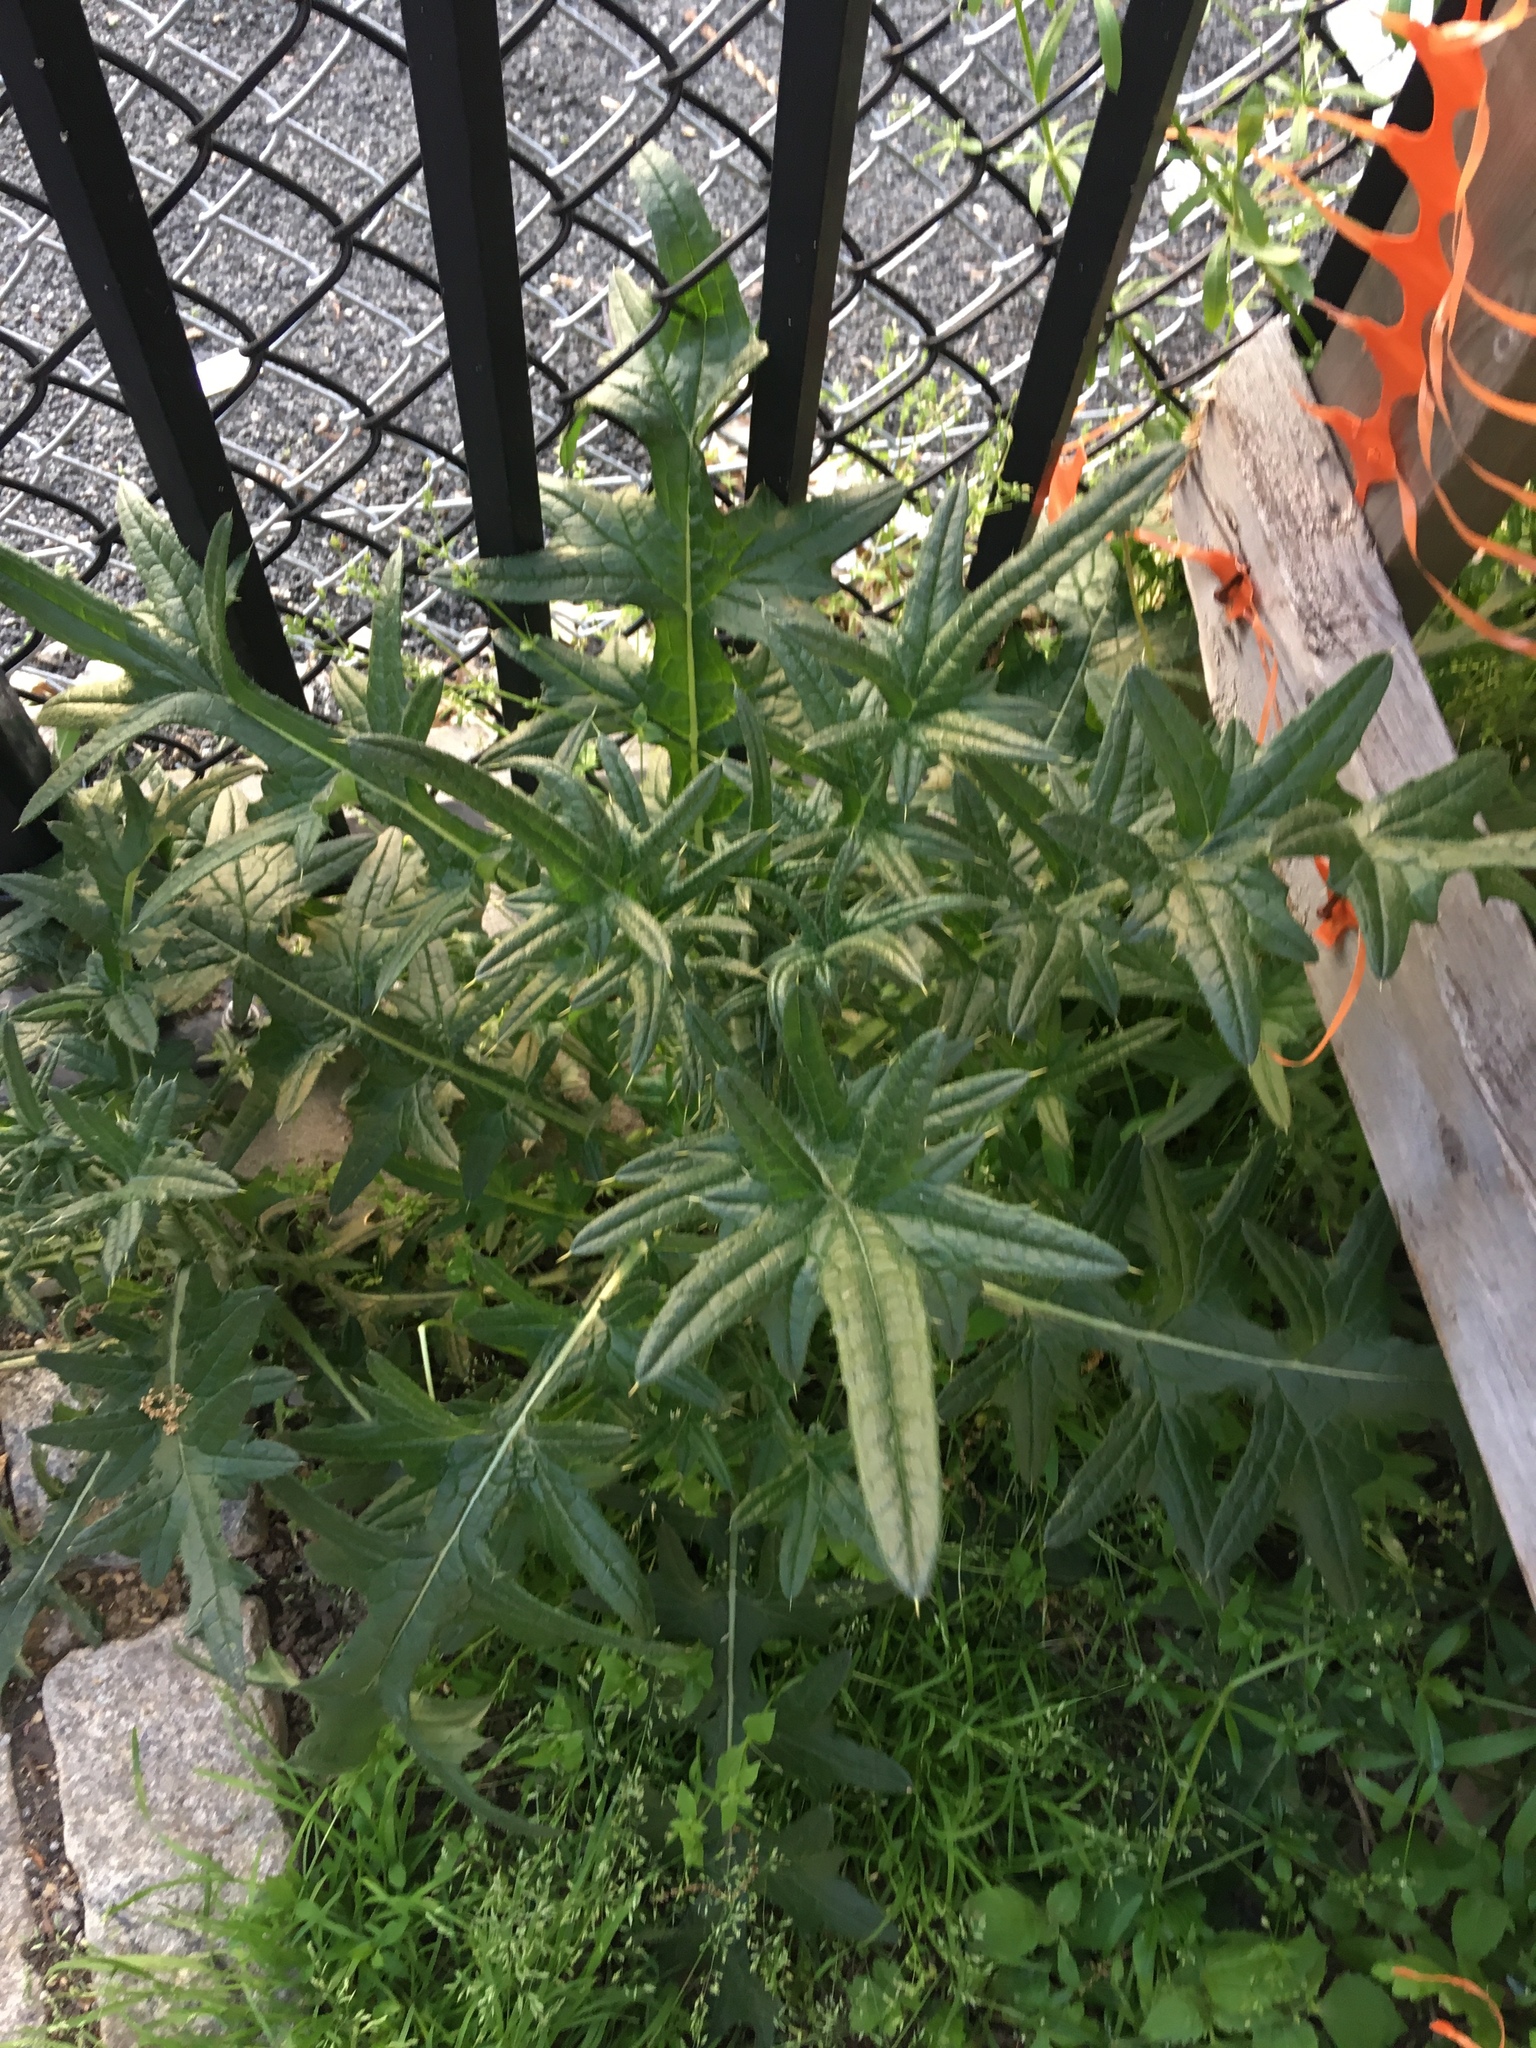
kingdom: Plantae
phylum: Tracheophyta
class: Magnoliopsida
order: Asterales
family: Asteraceae
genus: Cirsium
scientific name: Cirsium vulgare
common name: Bull thistle
